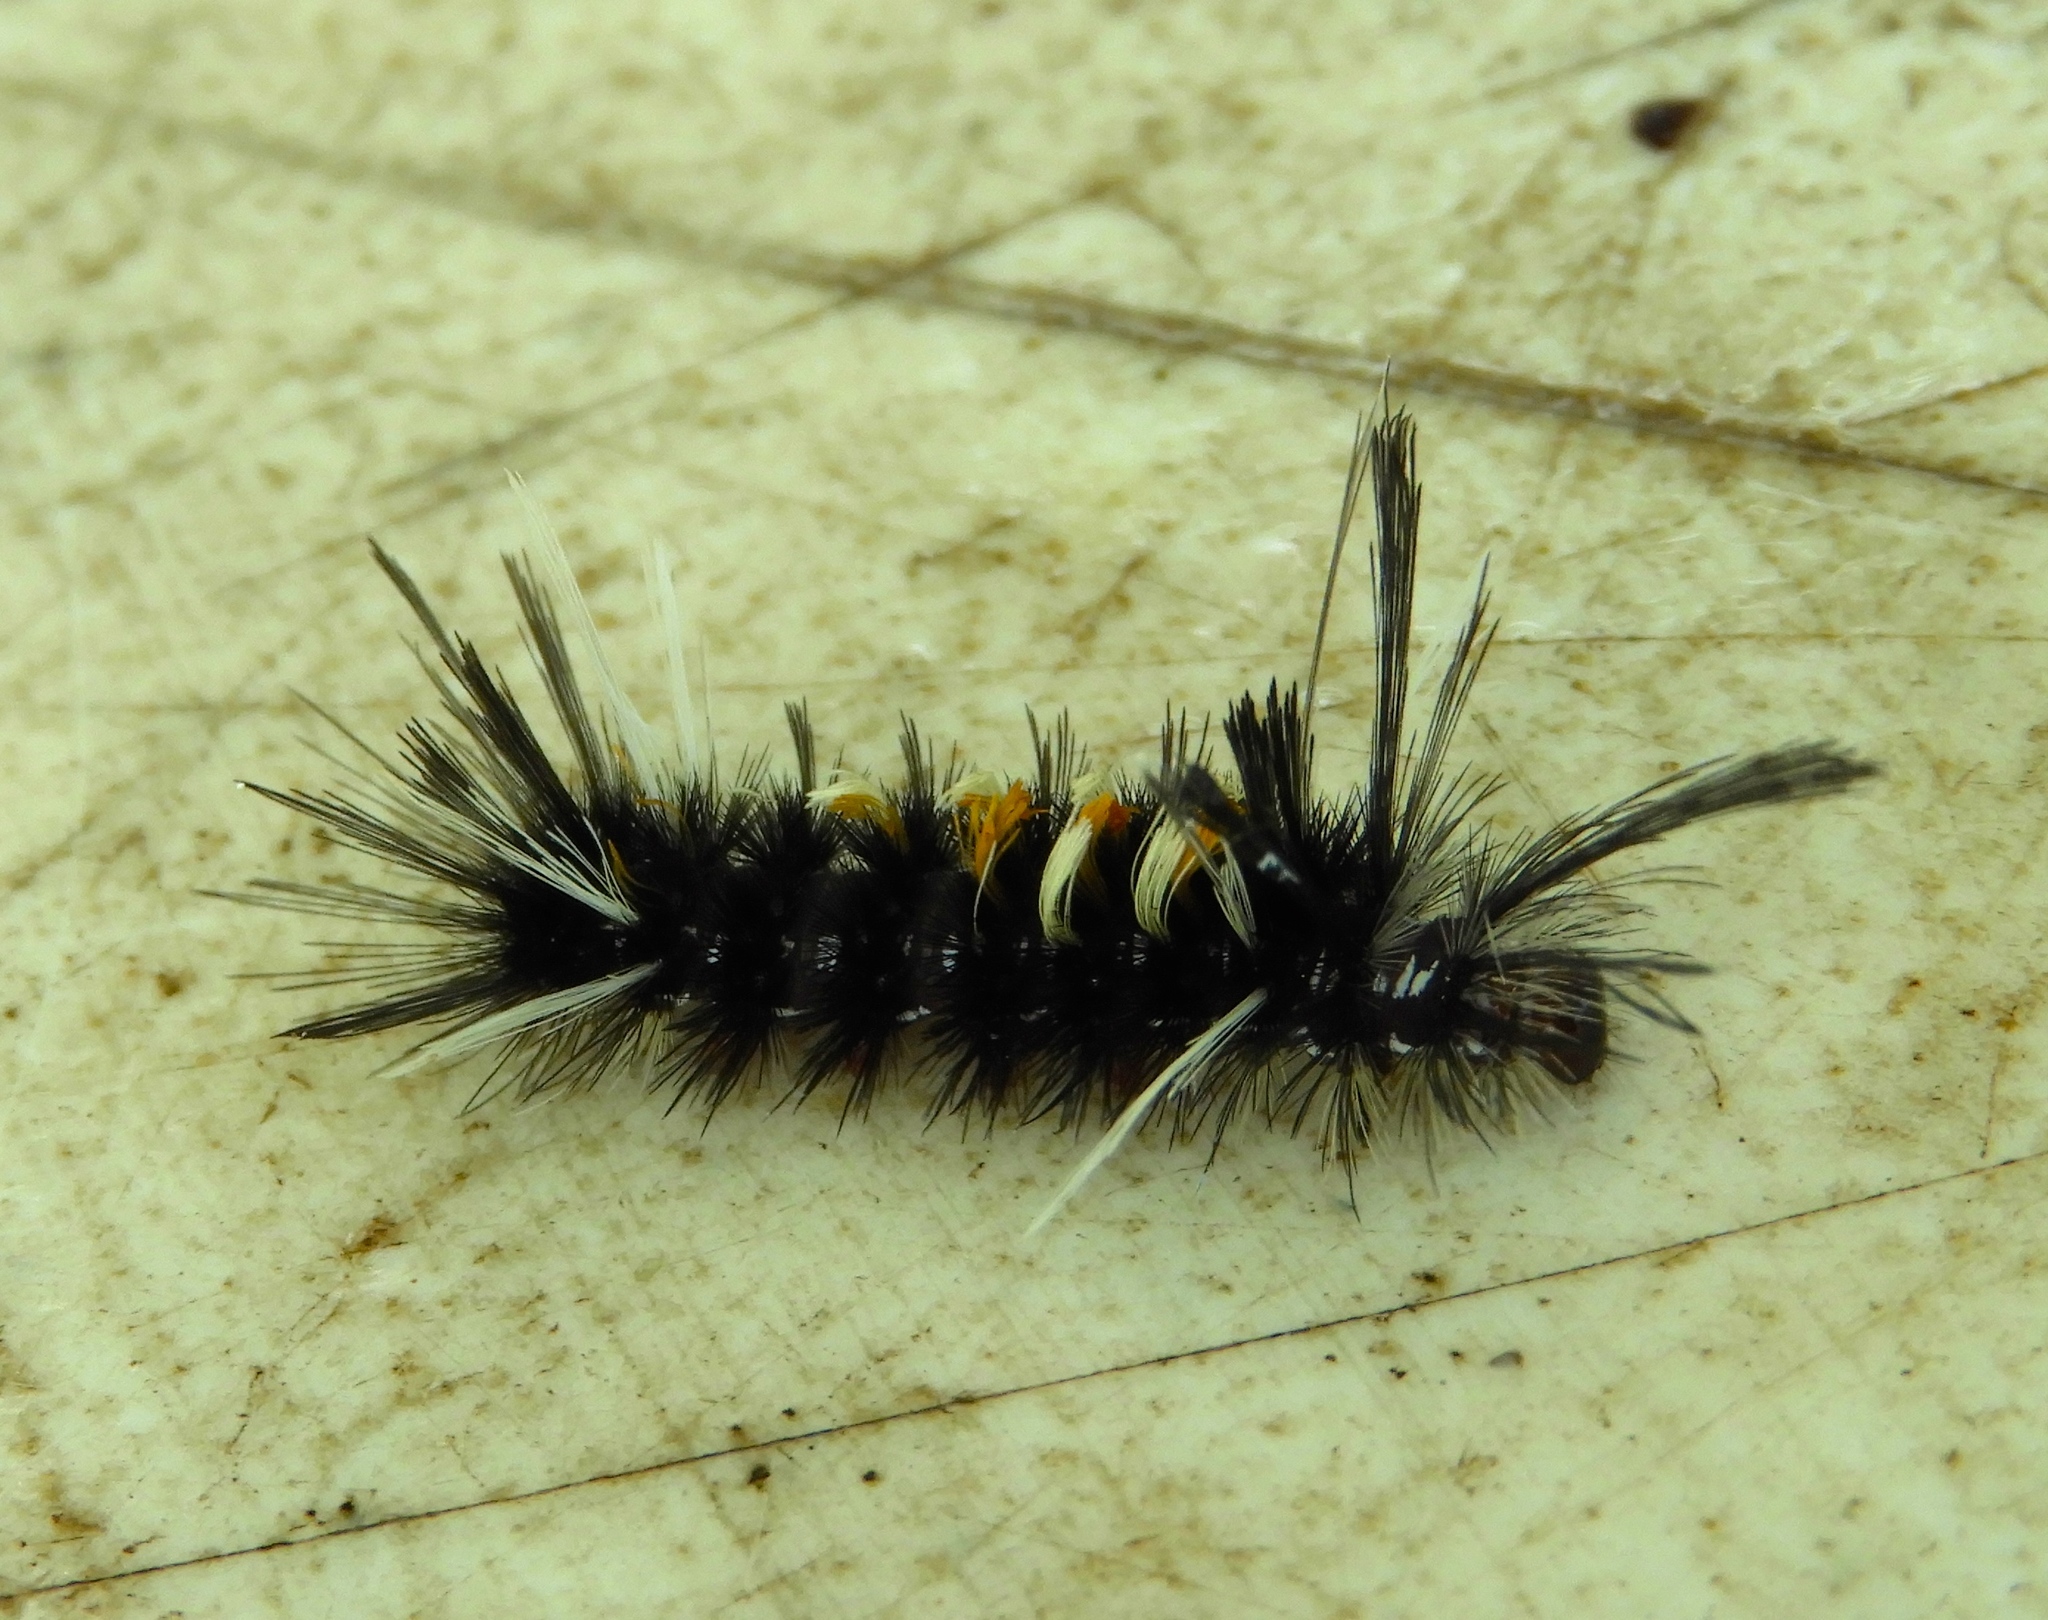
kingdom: Animalia
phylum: Arthropoda
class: Insecta
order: Lepidoptera
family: Erebidae
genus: Euchaetes
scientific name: Euchaetes
